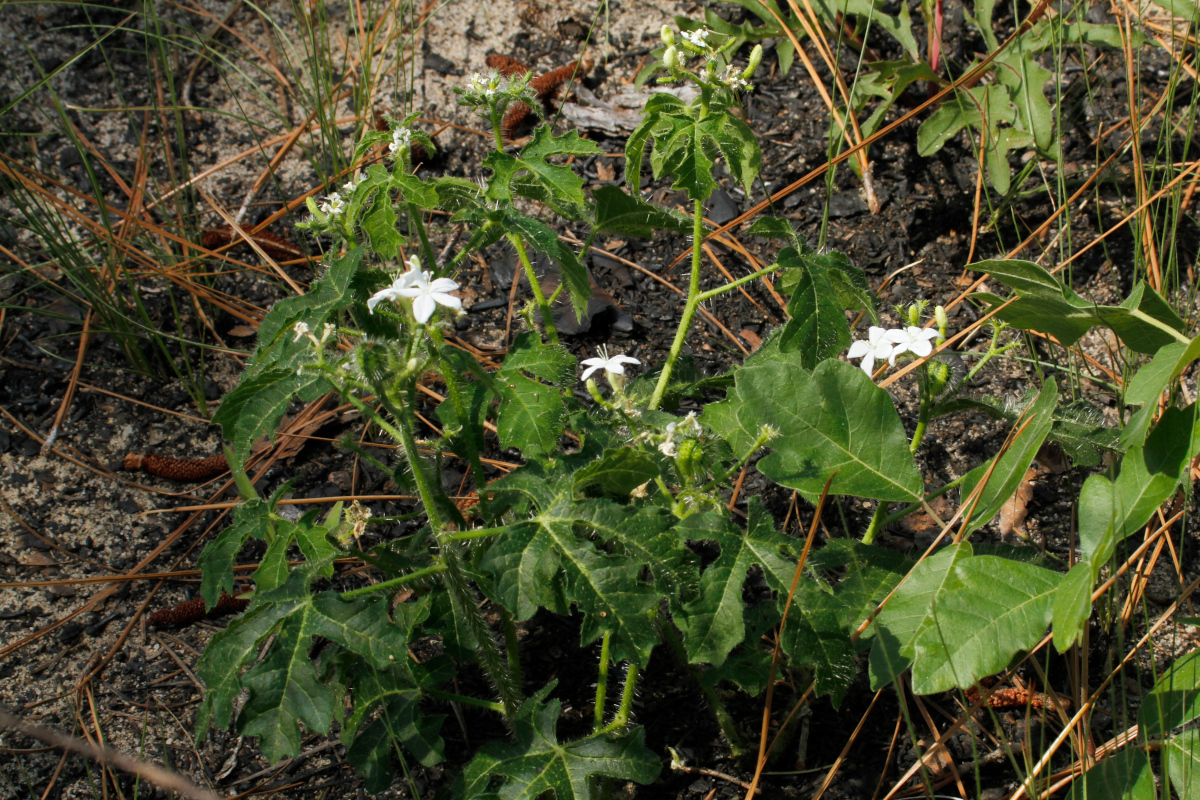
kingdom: Plantae
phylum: Tracheophyta
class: Magnoliopsida
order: Malpighiales
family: Euphorbiaceae
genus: Cnidoscolus
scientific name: Cnidoscolus stimulosus
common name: Bull-nettle
